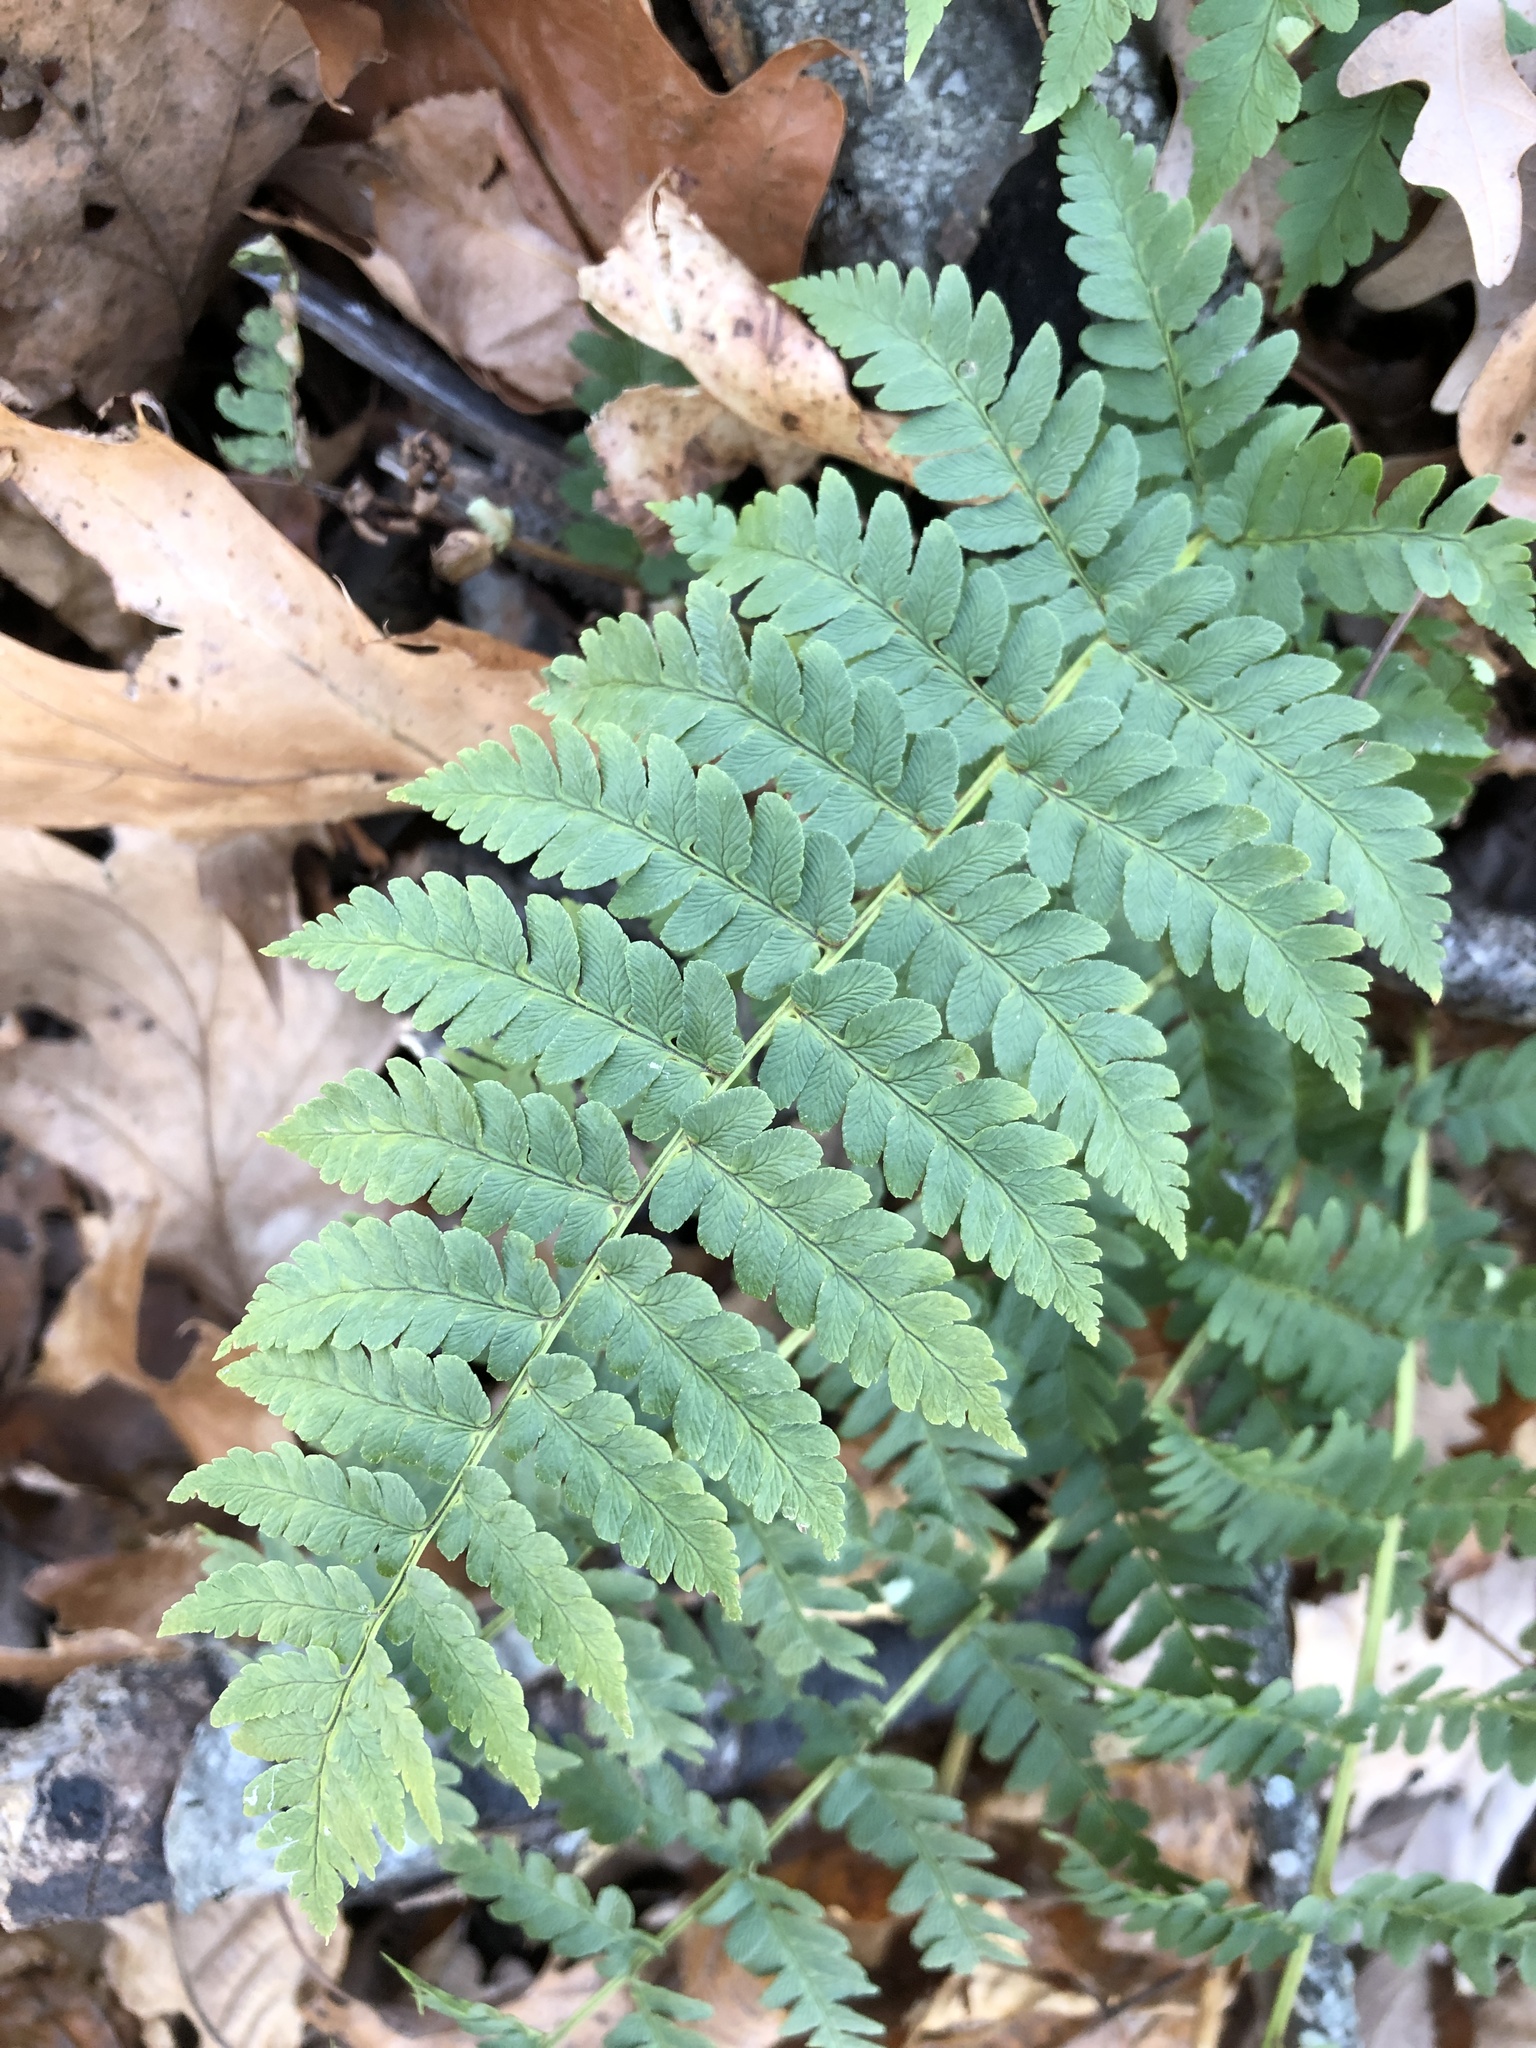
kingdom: Plantae
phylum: Tracheophyta
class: Polypodiopsida
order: Polypodiales
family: Dryopteridaceae
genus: Dryopteris
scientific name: Dryopteris marginalis
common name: Marginal wood fern
